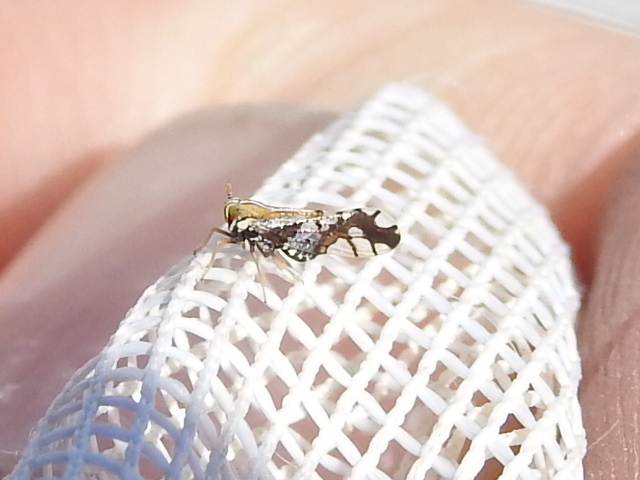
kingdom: Animalia
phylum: Arthropoda
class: Insecta
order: Hemiptera
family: Delphacidae
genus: Liburniella
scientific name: Liburniella ornata
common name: Ornate planthopper
